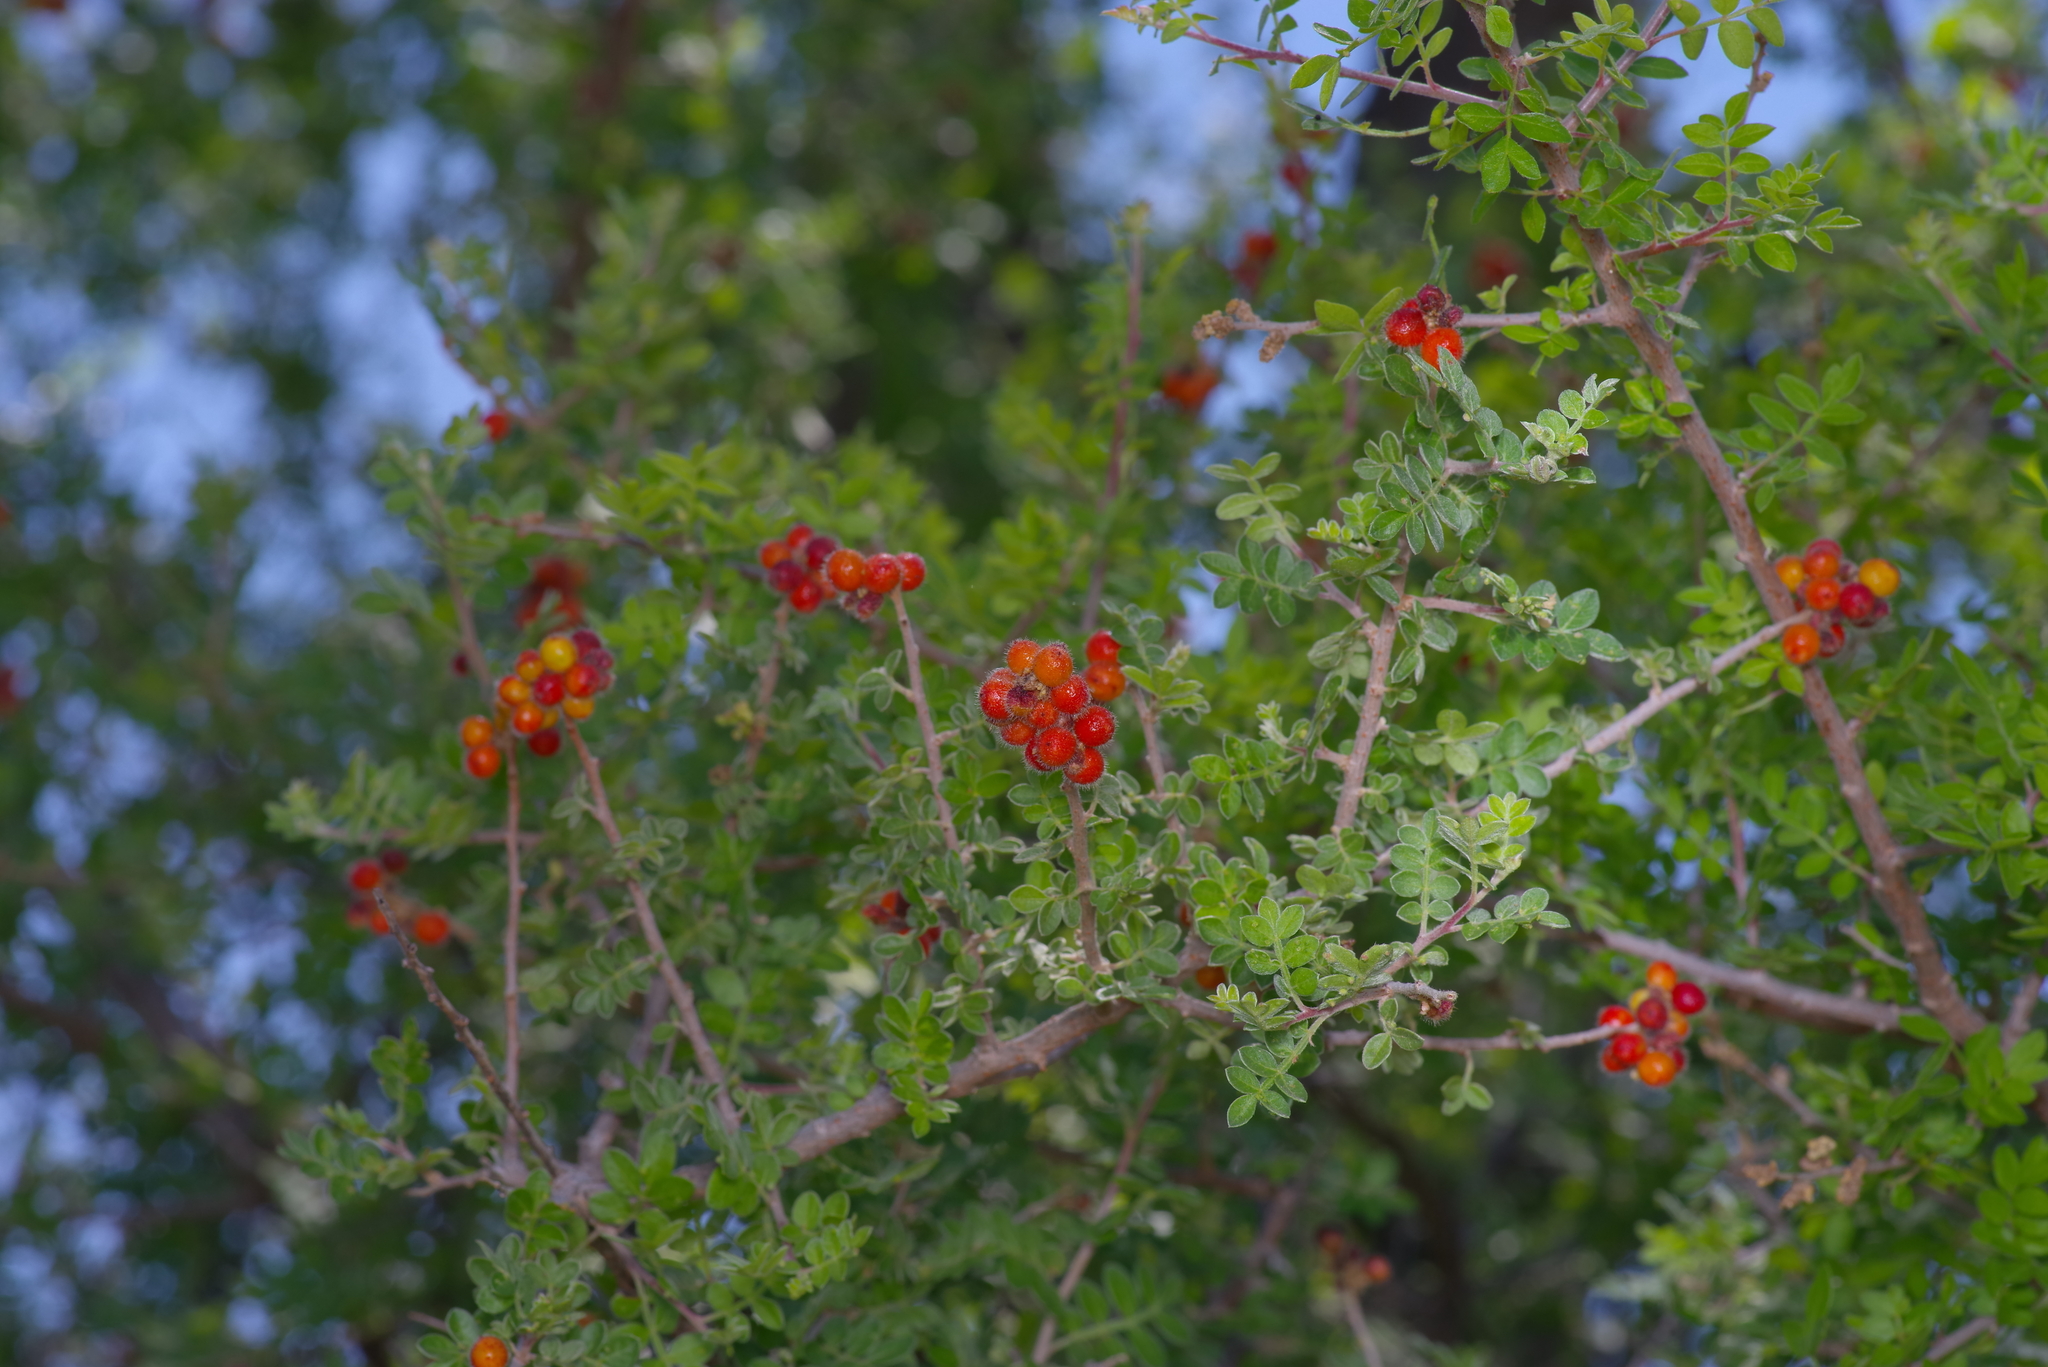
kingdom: Plantae
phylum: Tracheophyta
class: Magnoliopsida
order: Sapindales
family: Anacardiaceae
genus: Rhus
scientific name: Rhus microphylla
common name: Desert sumac
